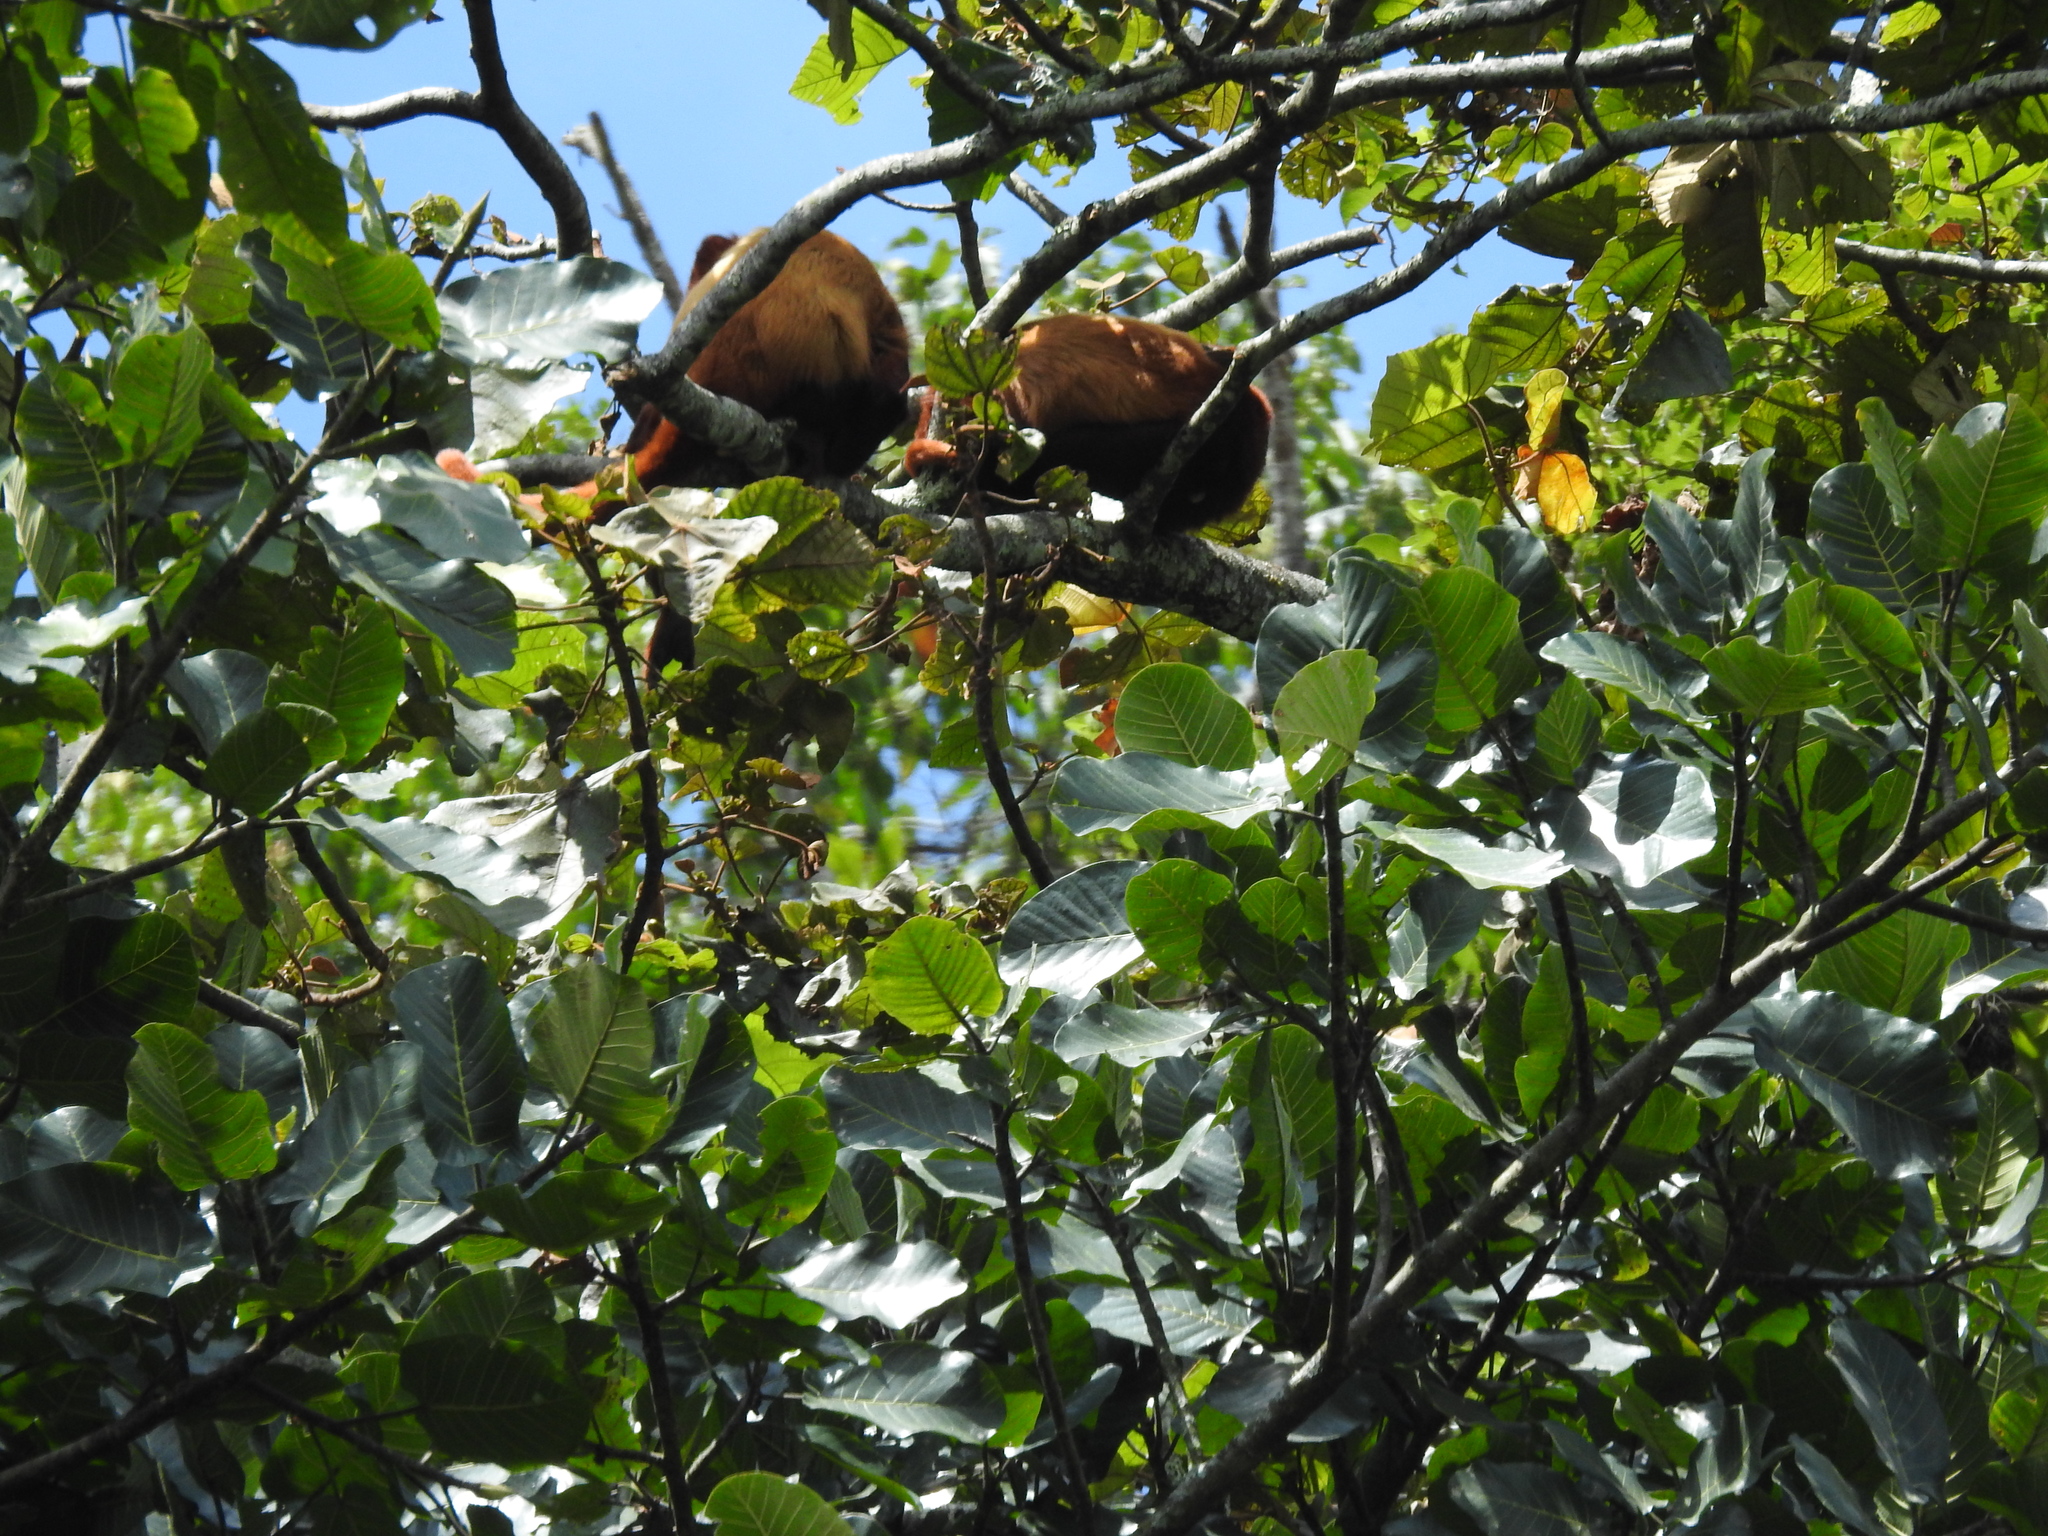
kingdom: Animalia
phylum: Chordata
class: Mammalia
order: Primates
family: Atelidae
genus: Alouatta
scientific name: Alouatta seniculus
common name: Venezuelan red howler
